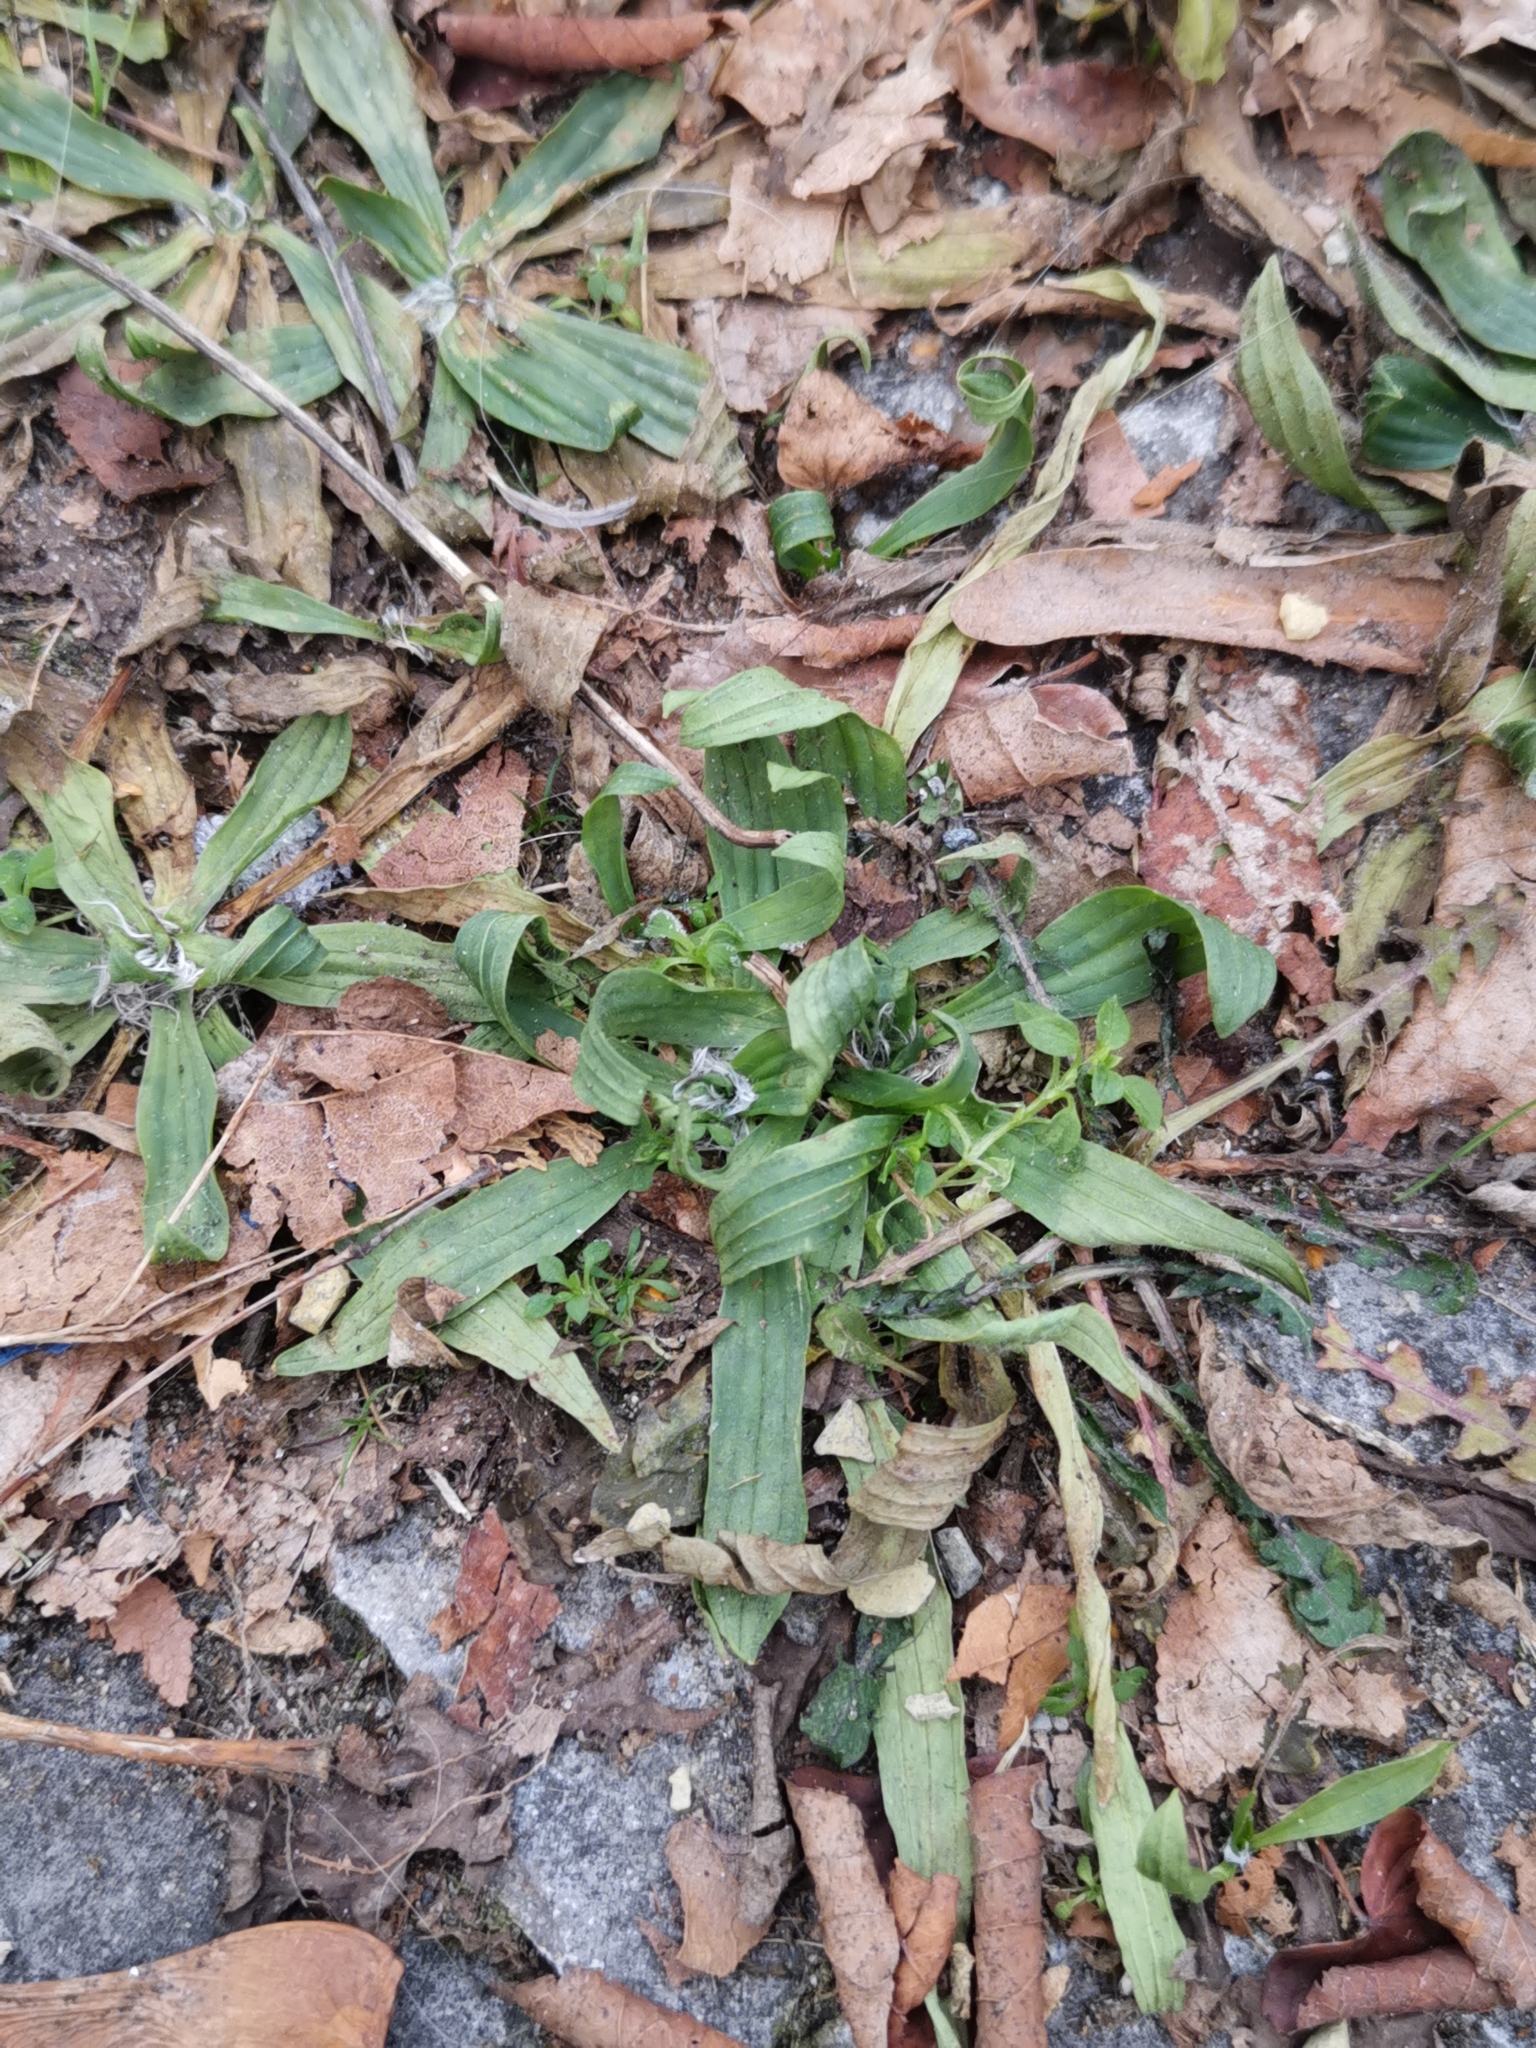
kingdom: Plantae
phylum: Tracheophyta
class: Magnoliopsida
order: Lamiales
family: Plantaginaceae
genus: Plantago
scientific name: Plantago lanceolata
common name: Ribwort plantain
